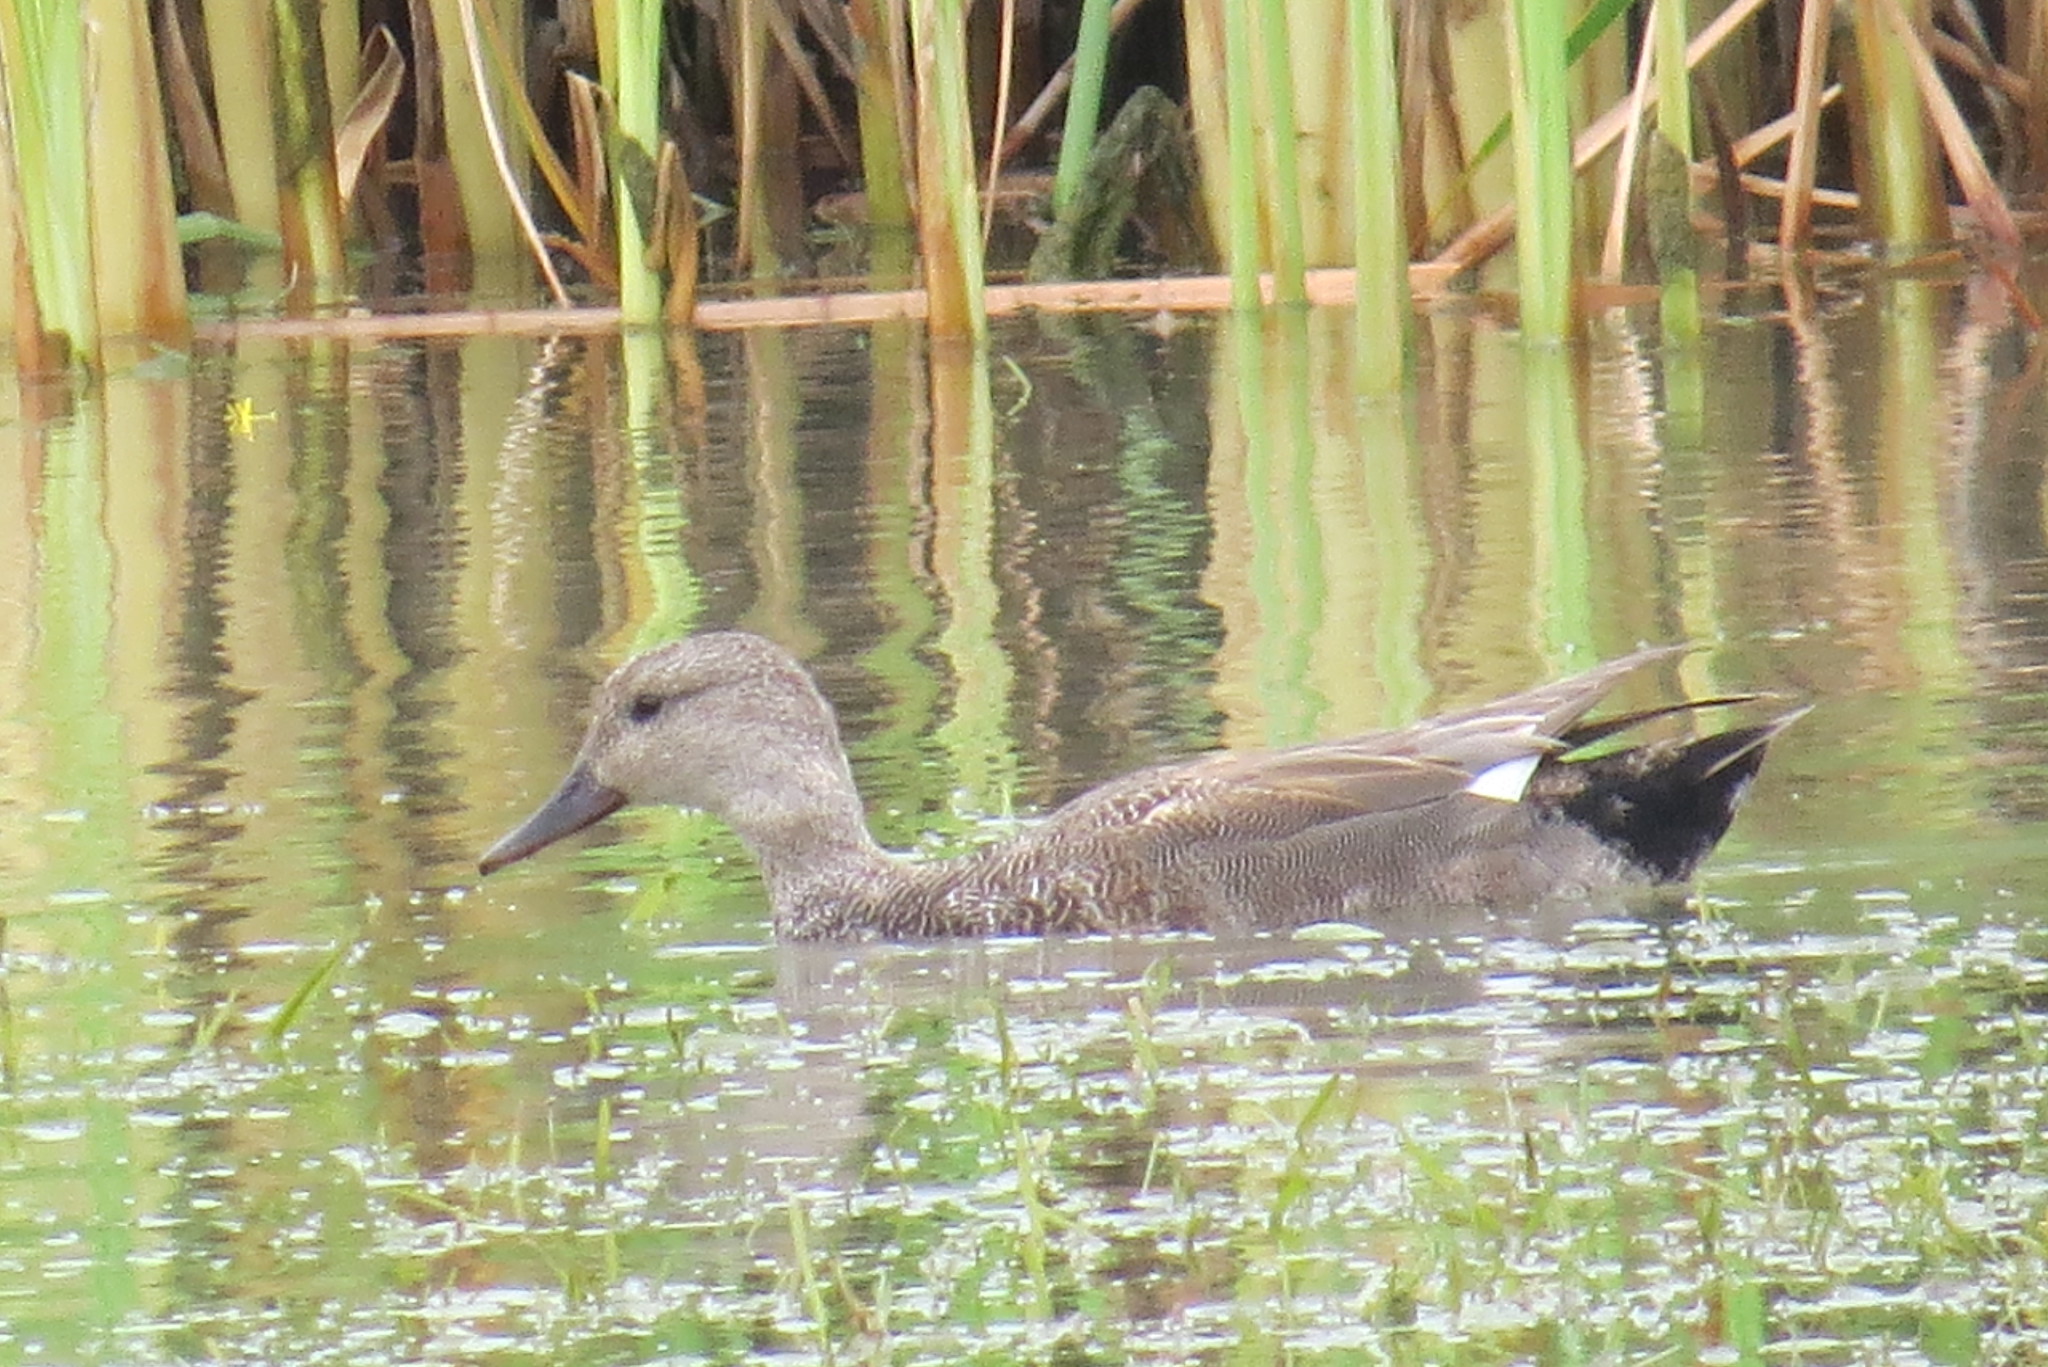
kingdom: Animalia
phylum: Chordata
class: Aves
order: Anseriformes
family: Anatidae
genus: Mareca
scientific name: Mareca strepera
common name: Gadwall
